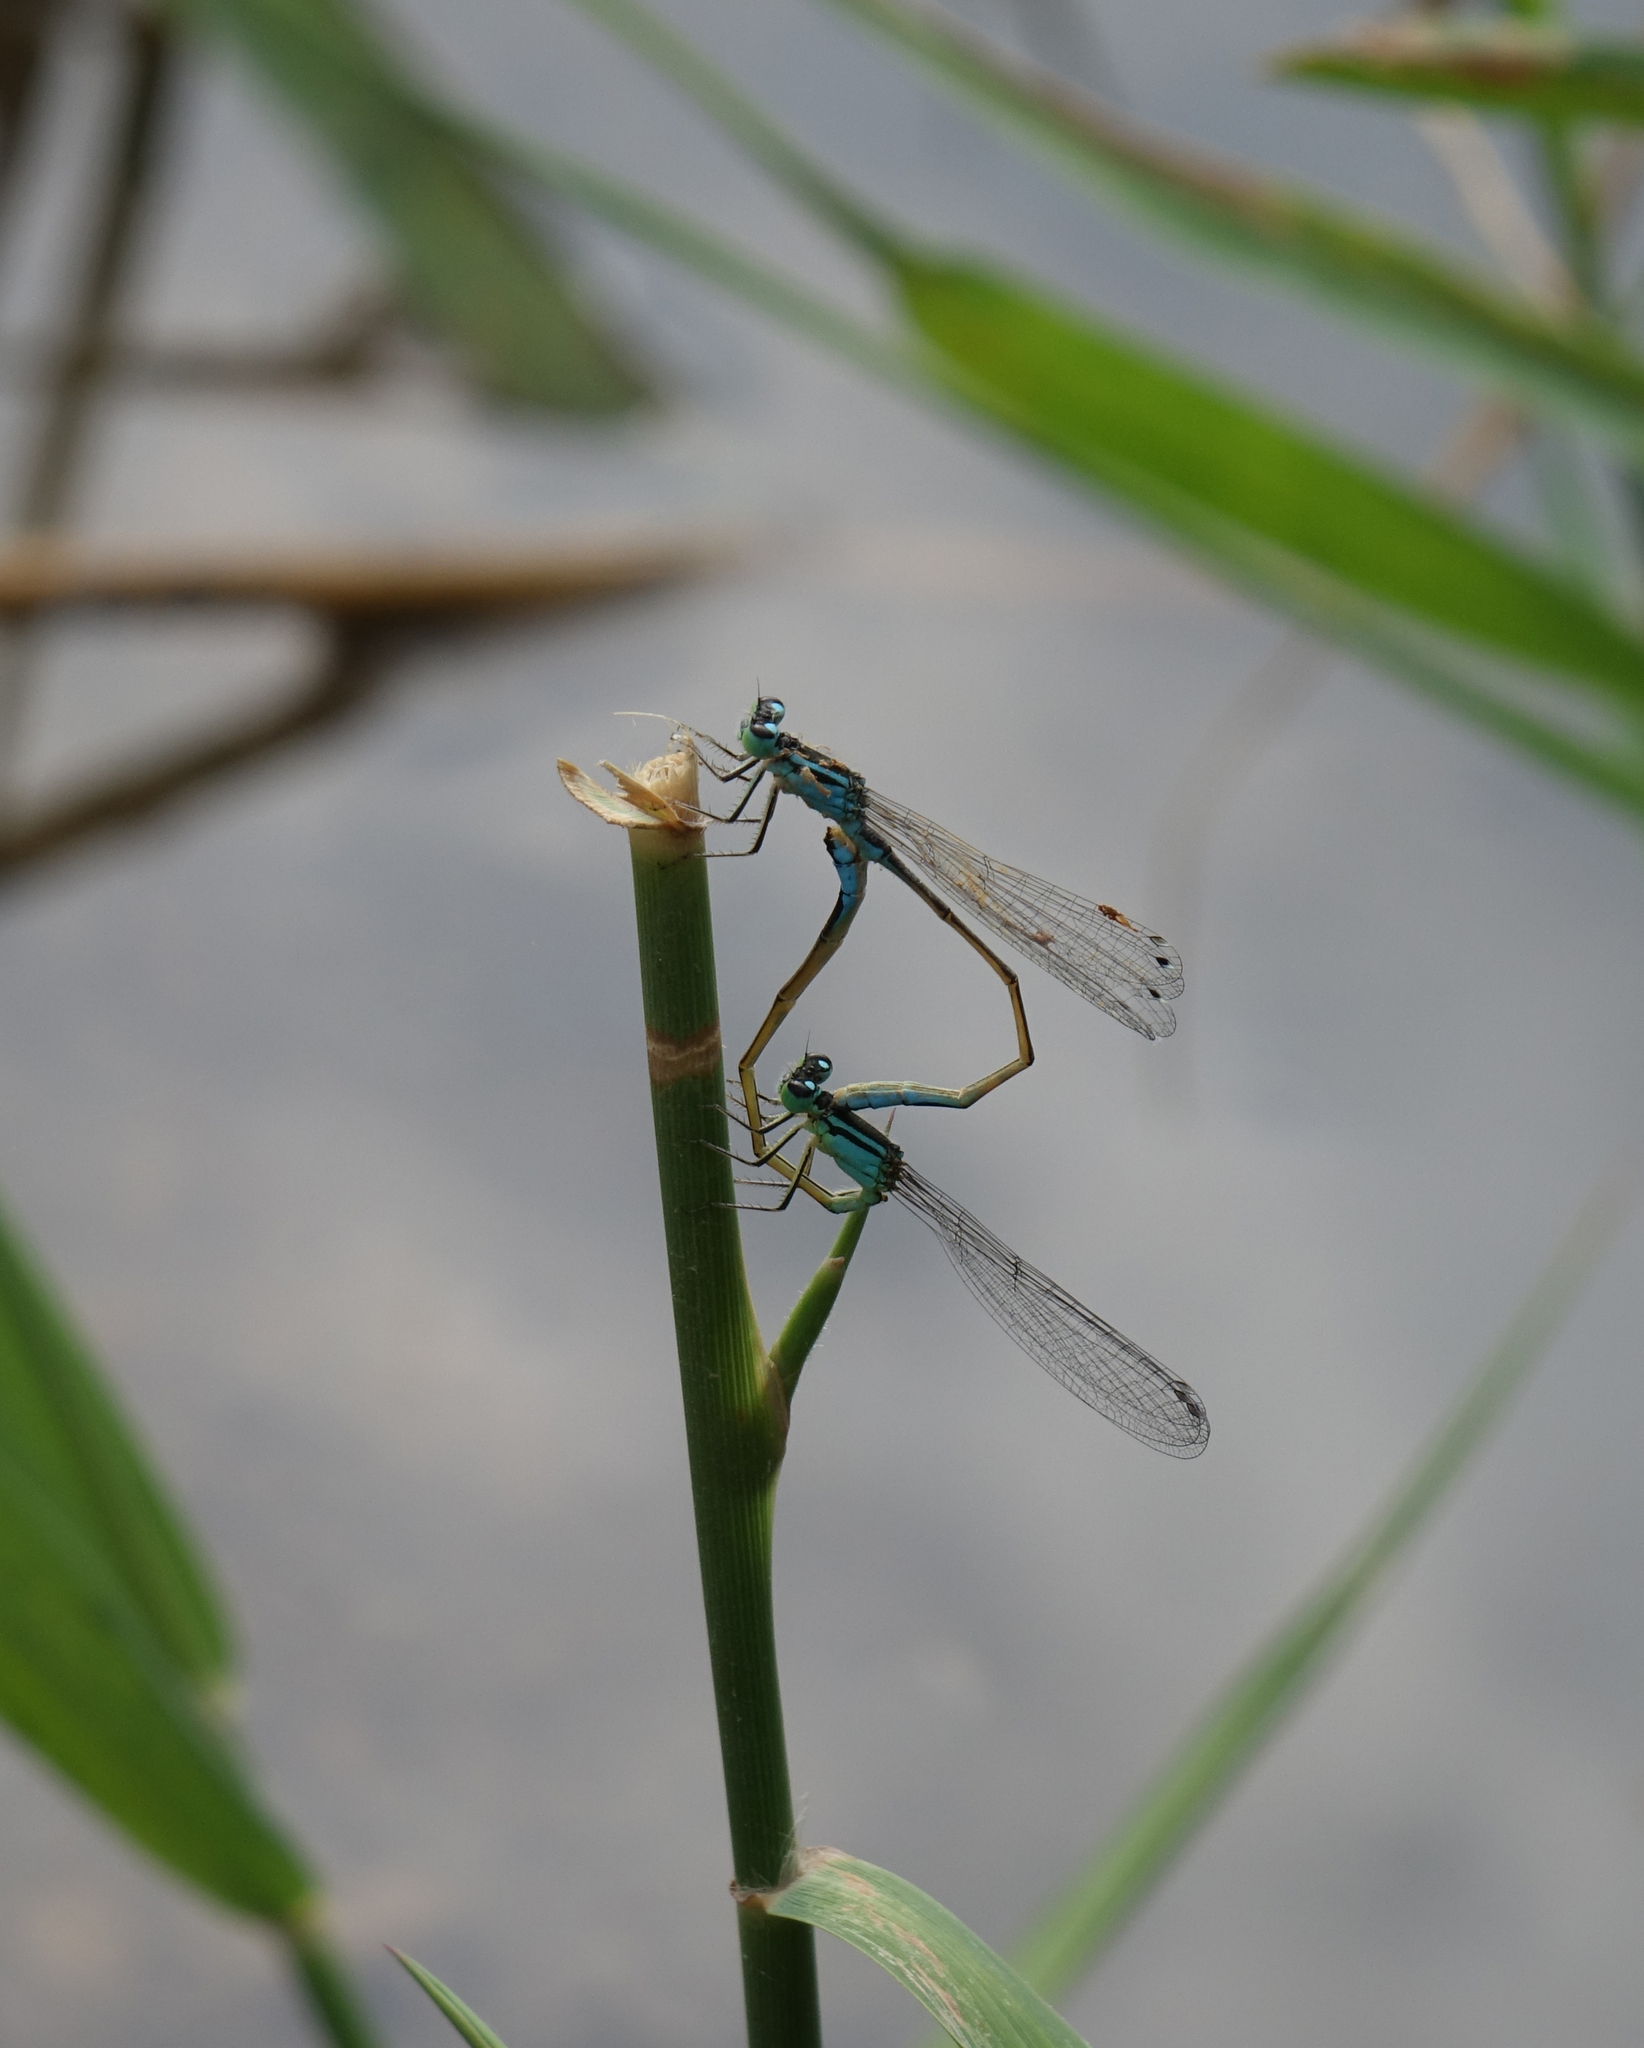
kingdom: Animalia
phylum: Arthropoda
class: Insecta
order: Odonata
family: Coenagrionidae
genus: Ischnura
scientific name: Ischnura elegans
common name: Blue-tailed damselfly
